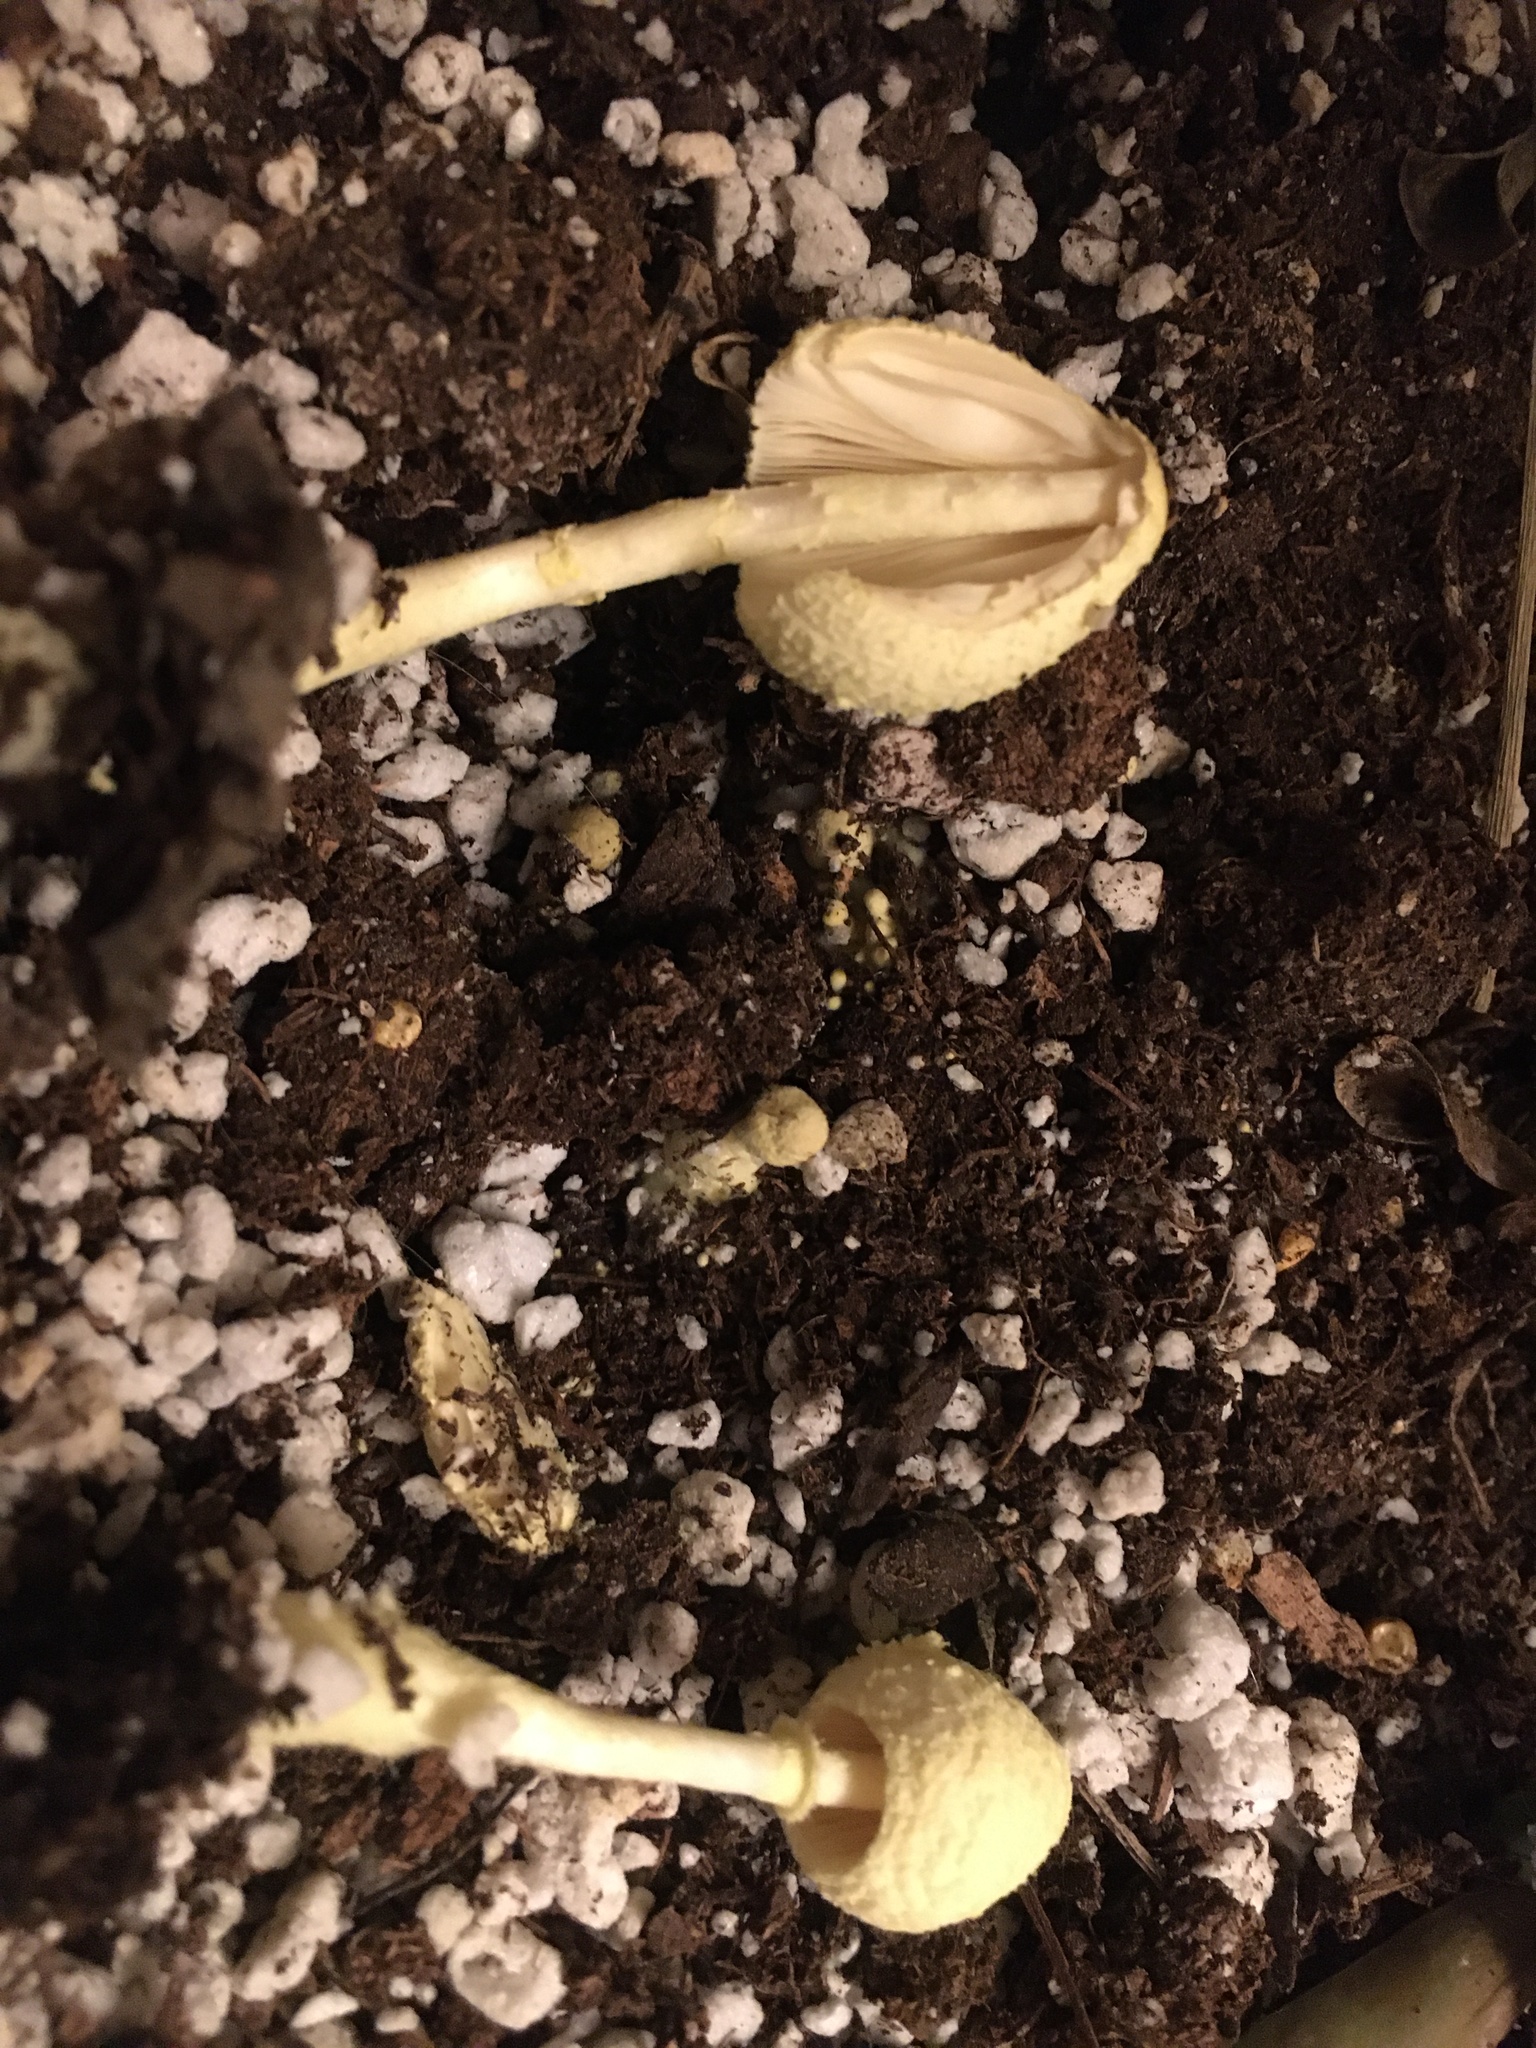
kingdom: Fungi
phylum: Basidiomycota
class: Agaricomycetes
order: Agaricales
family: Agaricaceae
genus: Leucocoprinus
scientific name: Leucocoprinus birnbaumii
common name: Plantpot dapperling
